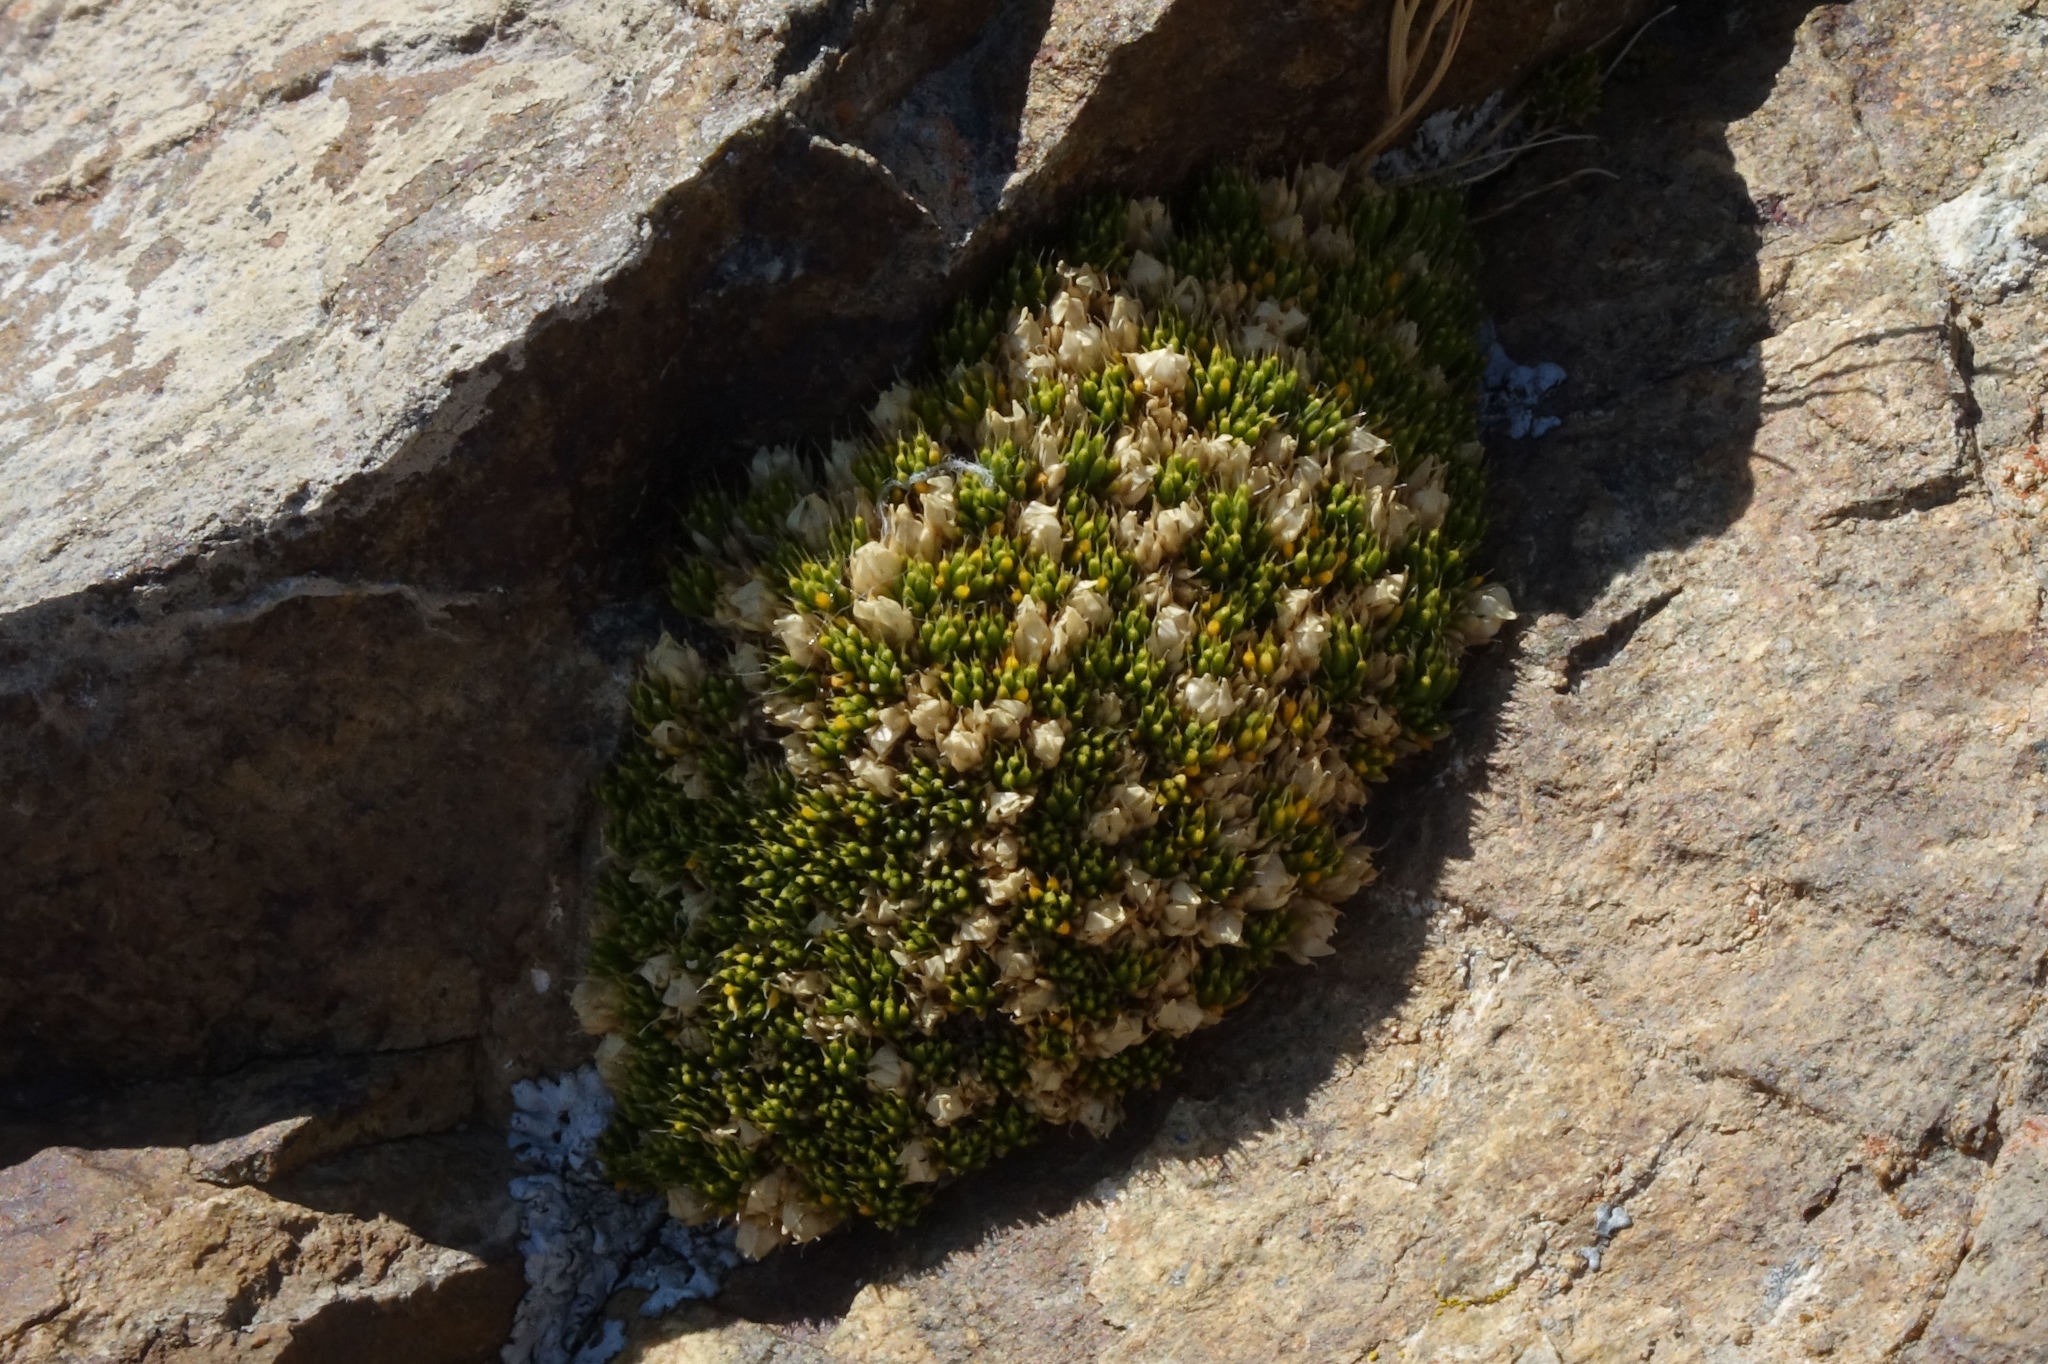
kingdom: Plantae
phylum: Tracheophyta
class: Magnoliopsida
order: Caryophyllales
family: Caryophyllaceae
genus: Colobanthus
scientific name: Colobanthus brevisepalus
